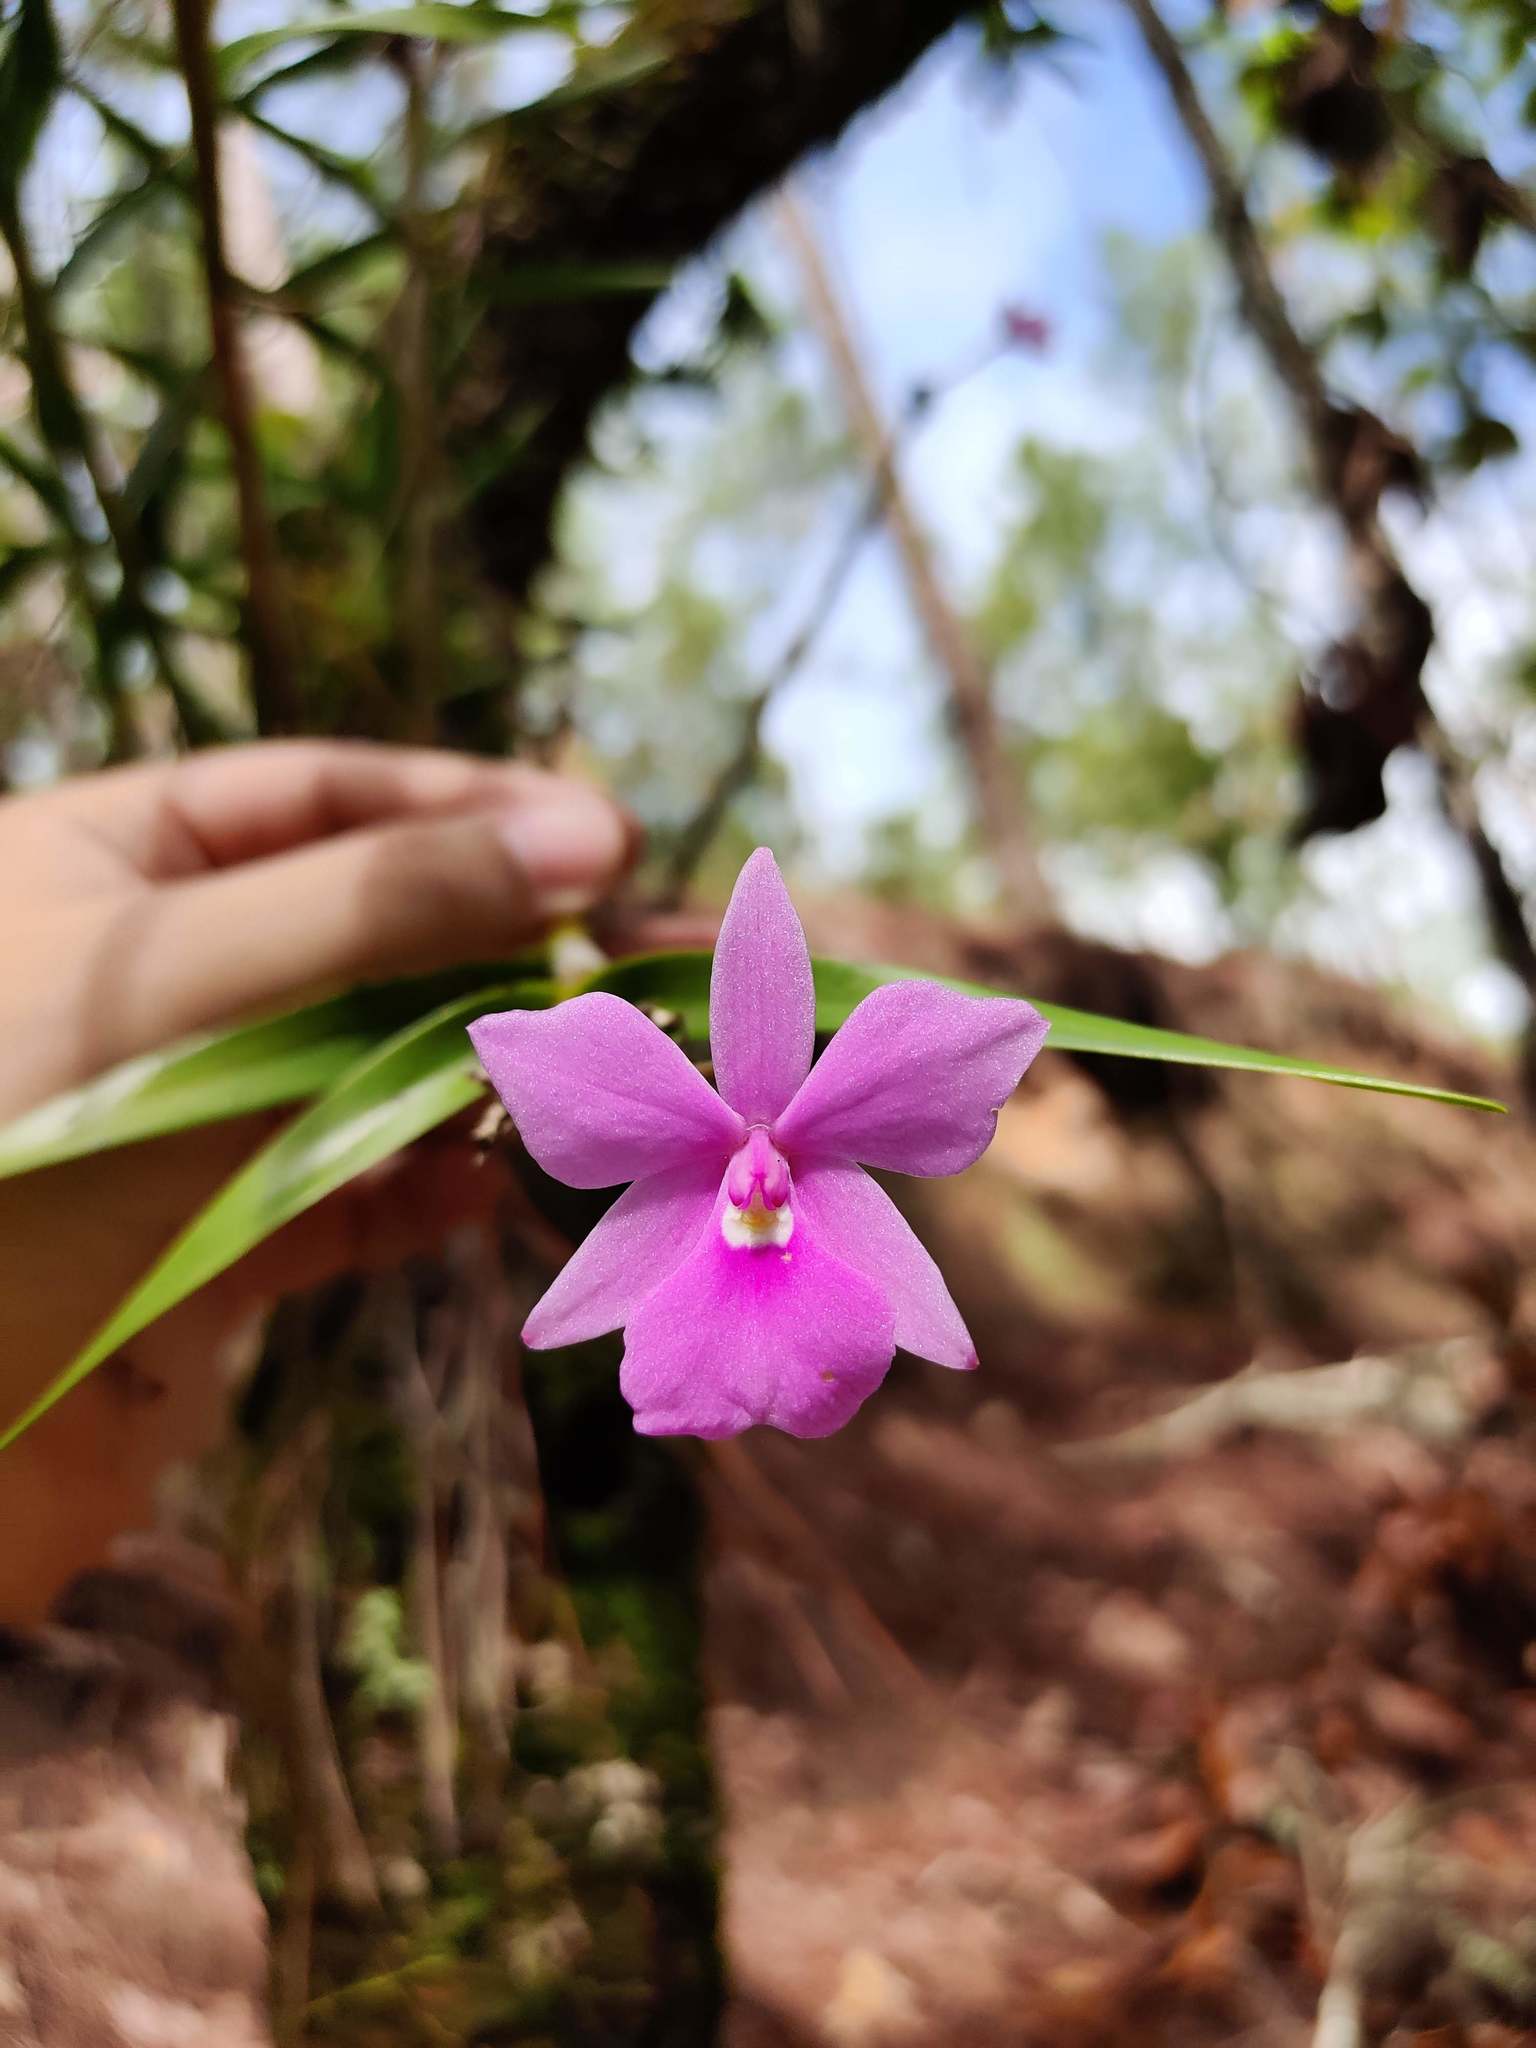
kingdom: Plantae
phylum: Tracheophyta
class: Liliopsida
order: Asparagales
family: Orchidaceae
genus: Dimerandra
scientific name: Dimerandra emarginata
